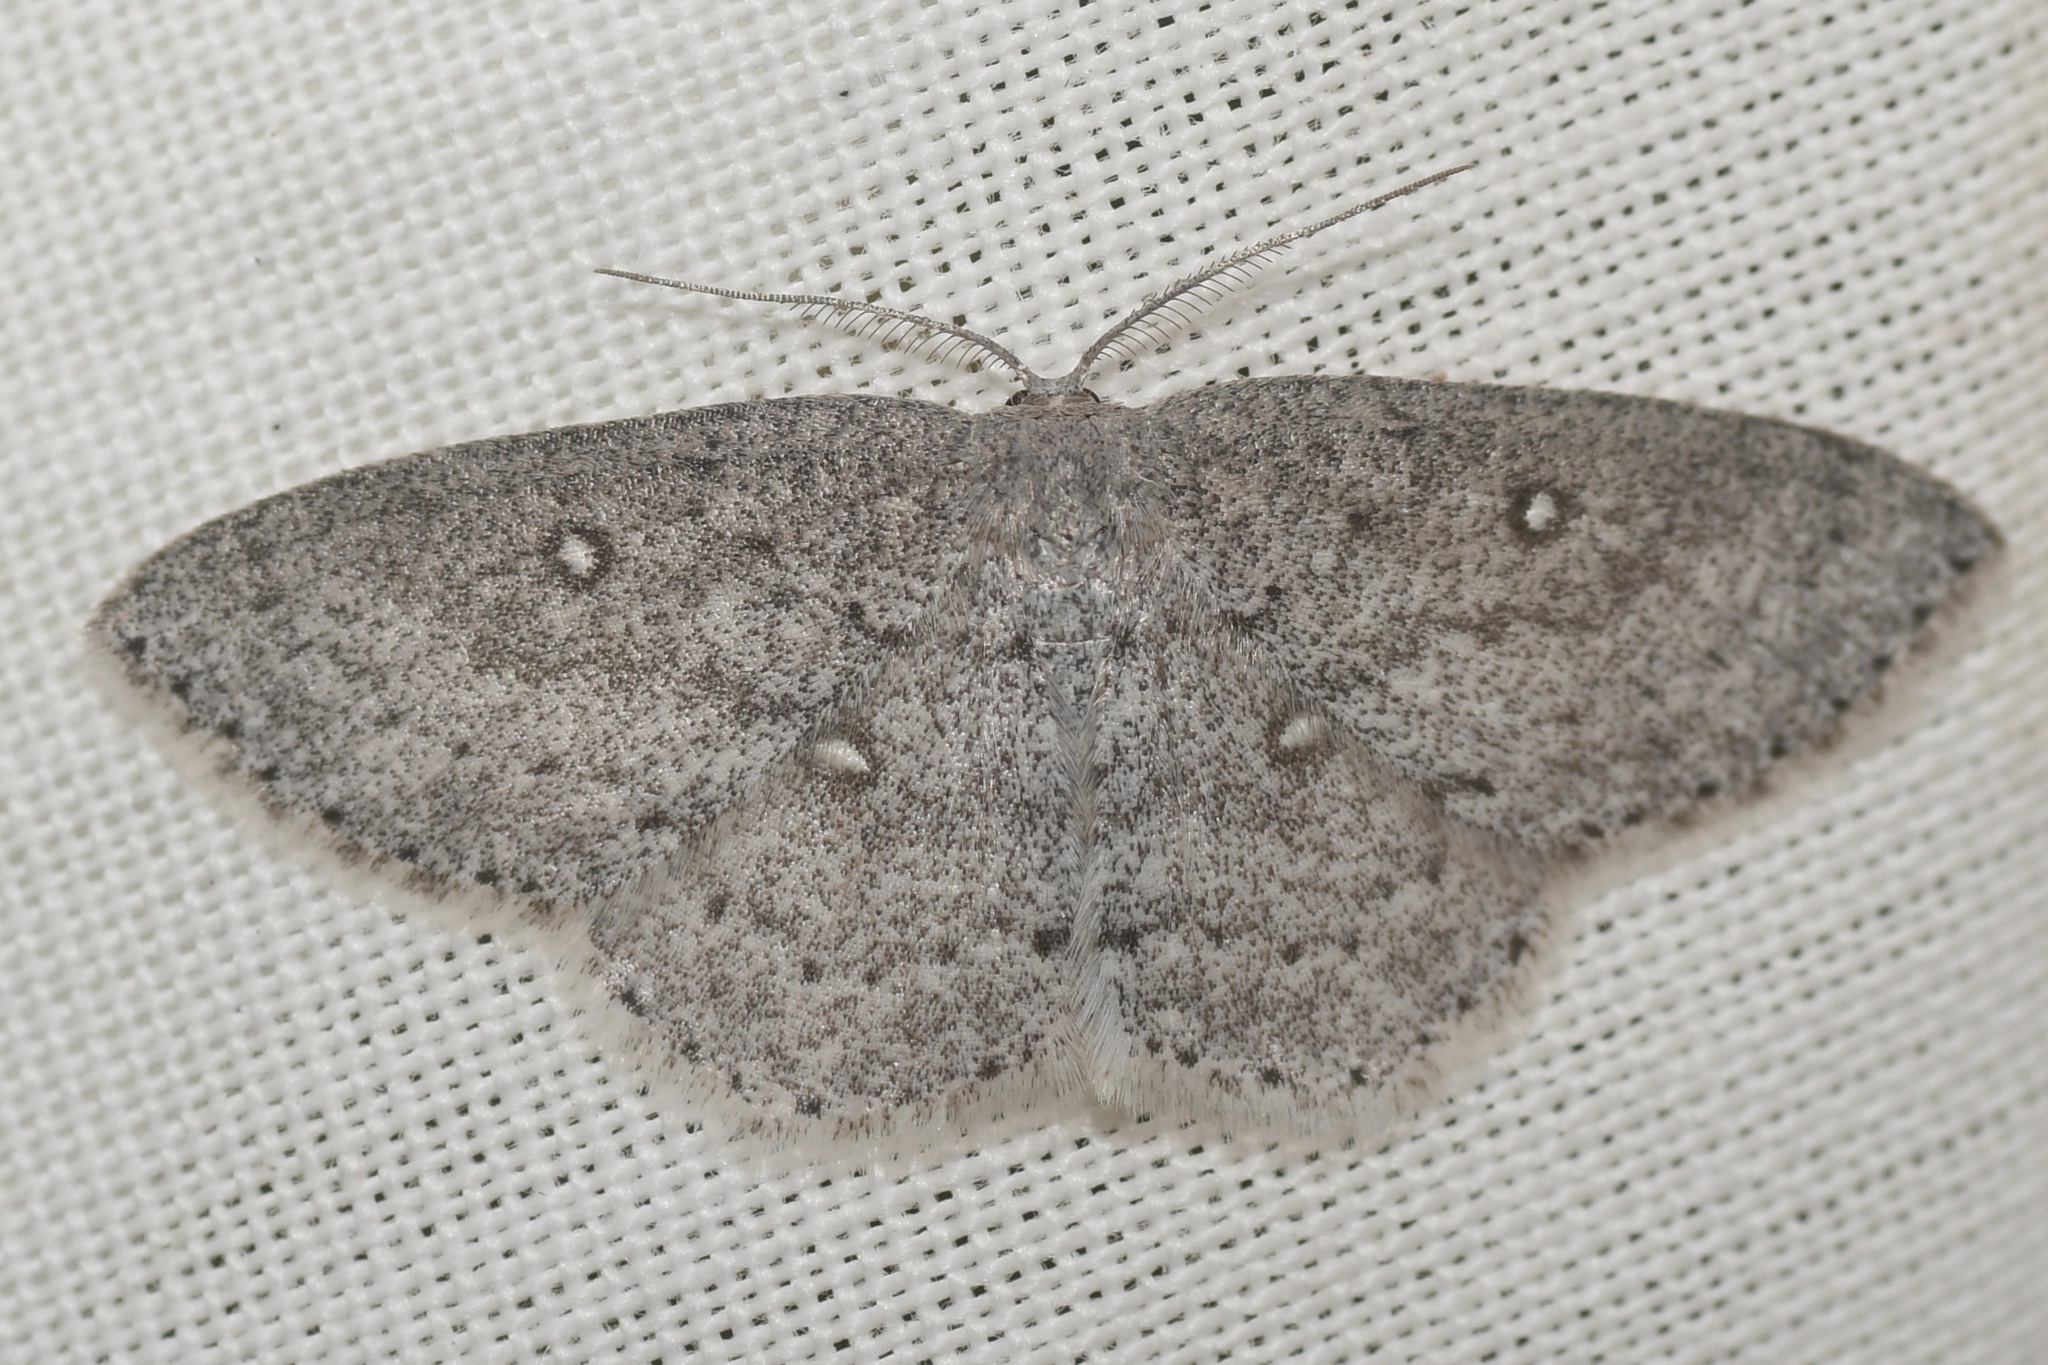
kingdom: Animalia
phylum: Arthropoda
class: Insecta
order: Lepidoptera
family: Geometridae
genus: Cyclophora
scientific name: Cyclophora pendulinaria
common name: Sweet fern geometer
